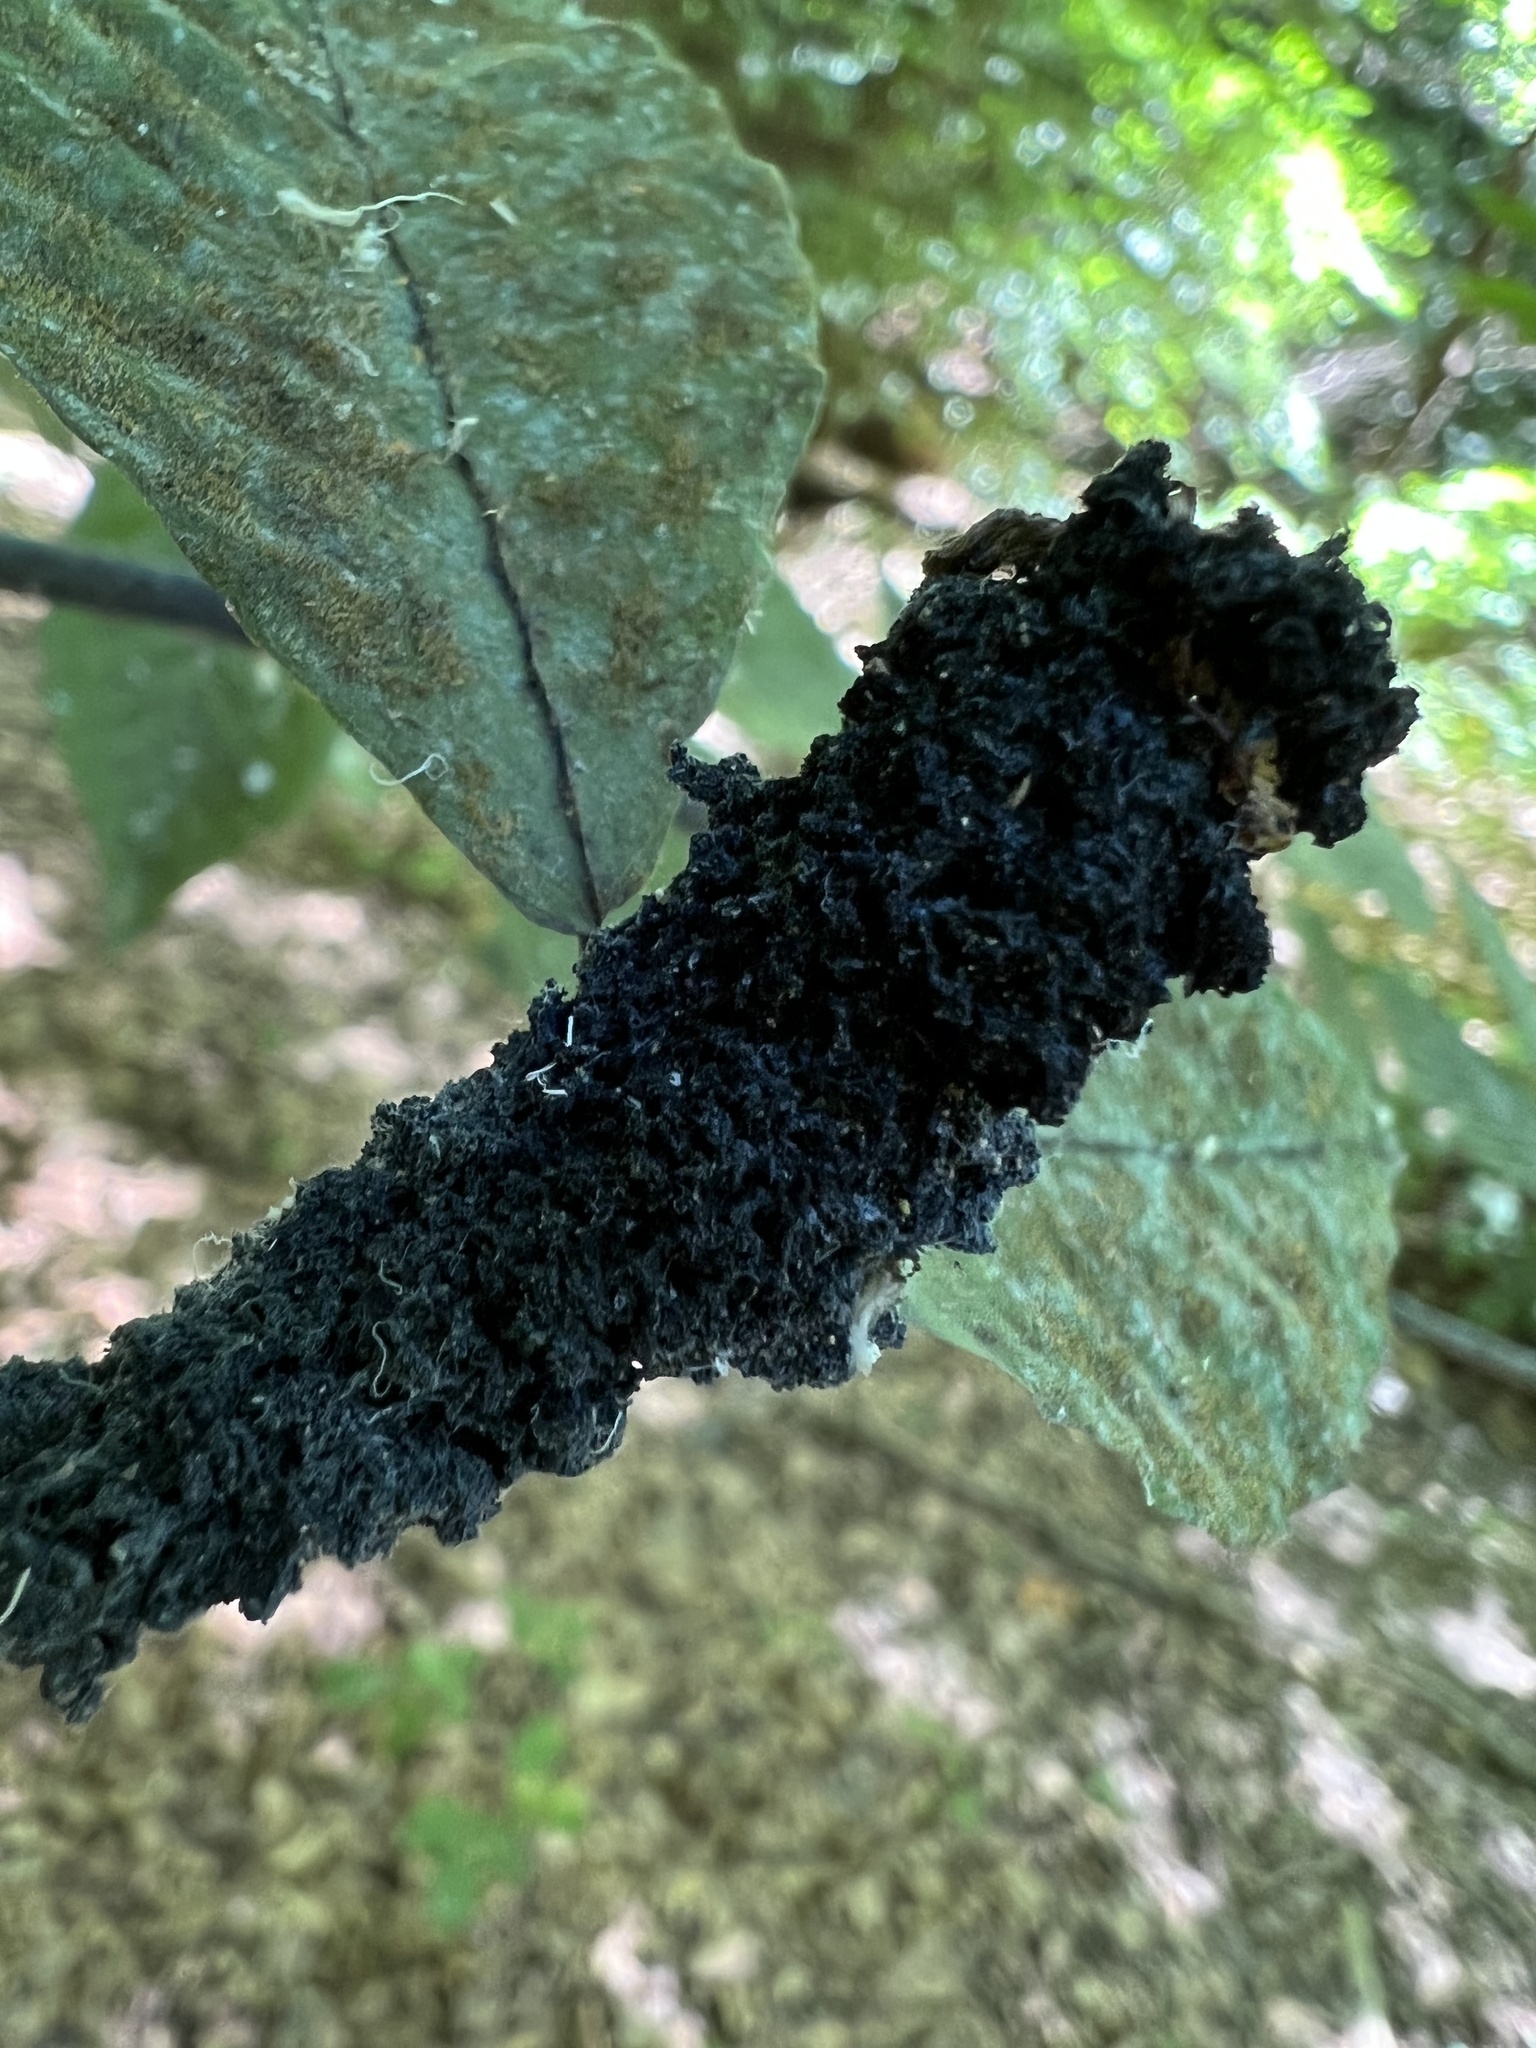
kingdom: Fungi
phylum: Ascomycota
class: Dothideomycetes
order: Capnodiales
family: Capnodiaceae
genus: Scorias
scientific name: Scorias spongiosa
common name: Black sooty mold
